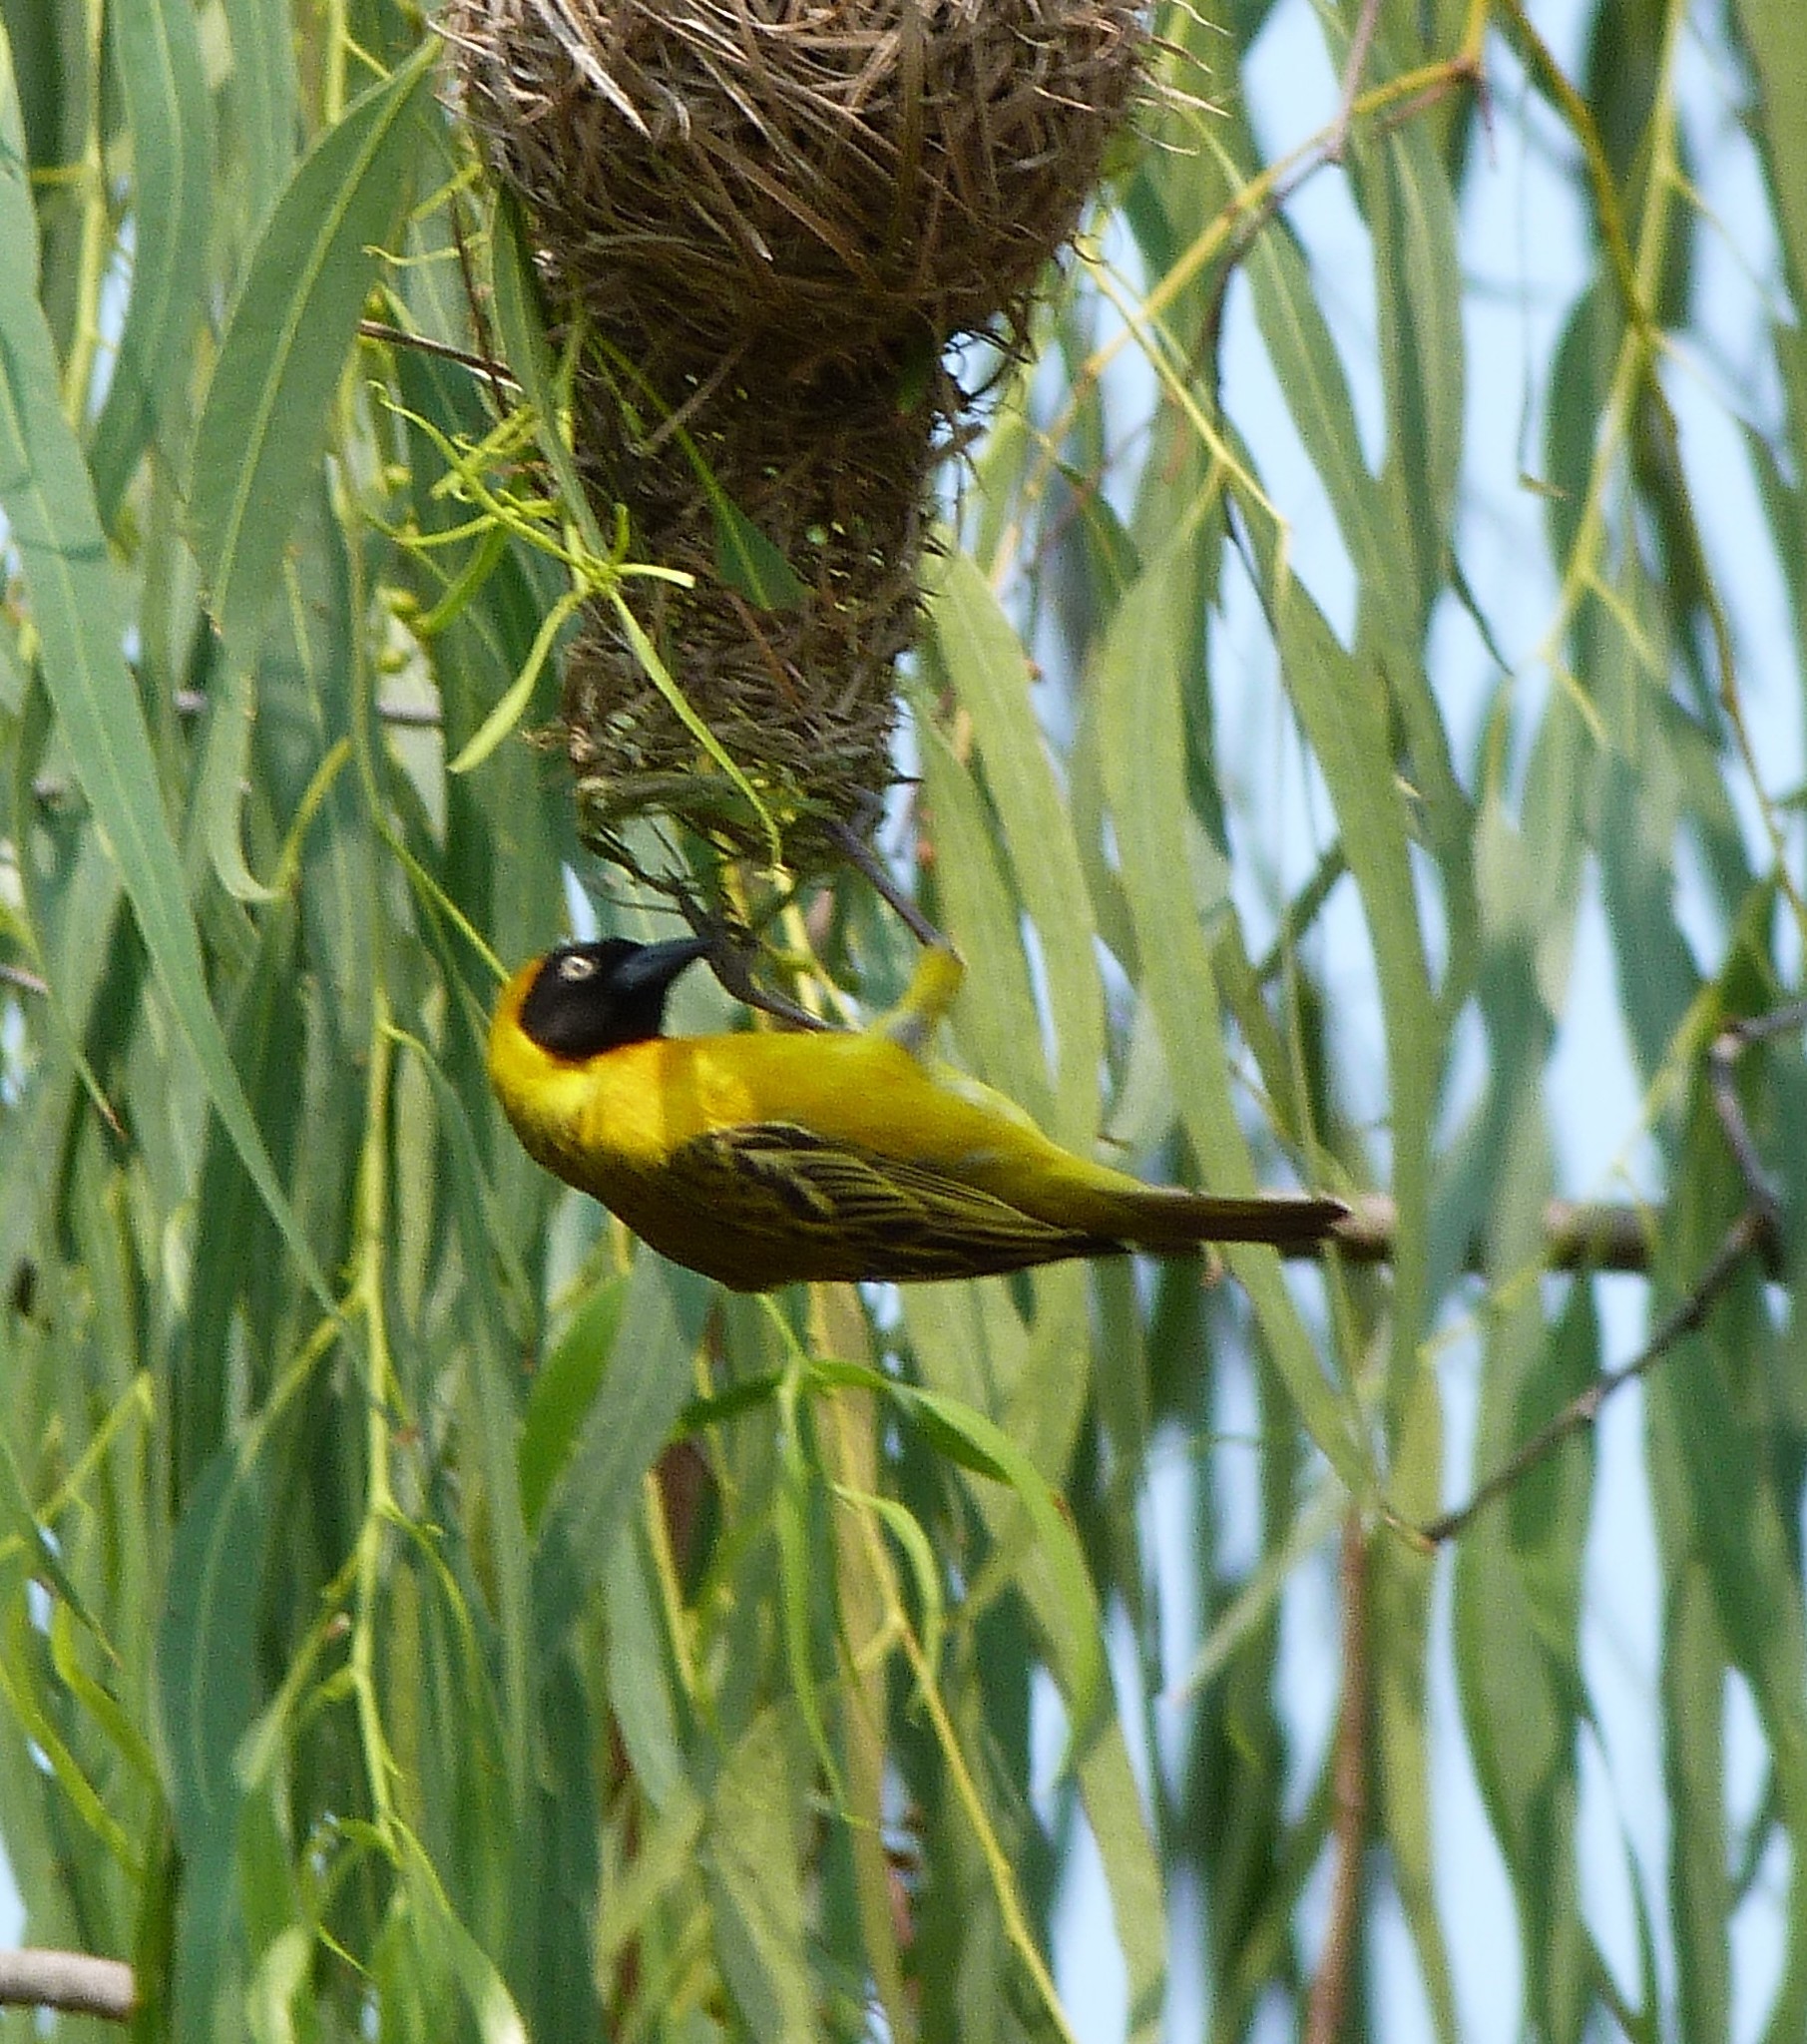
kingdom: Animalia
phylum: Chordata
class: Aves
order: Passeriformes
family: Ploceidae
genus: Ploceus
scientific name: Ploceus intermedius
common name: Lesser masked weaver
